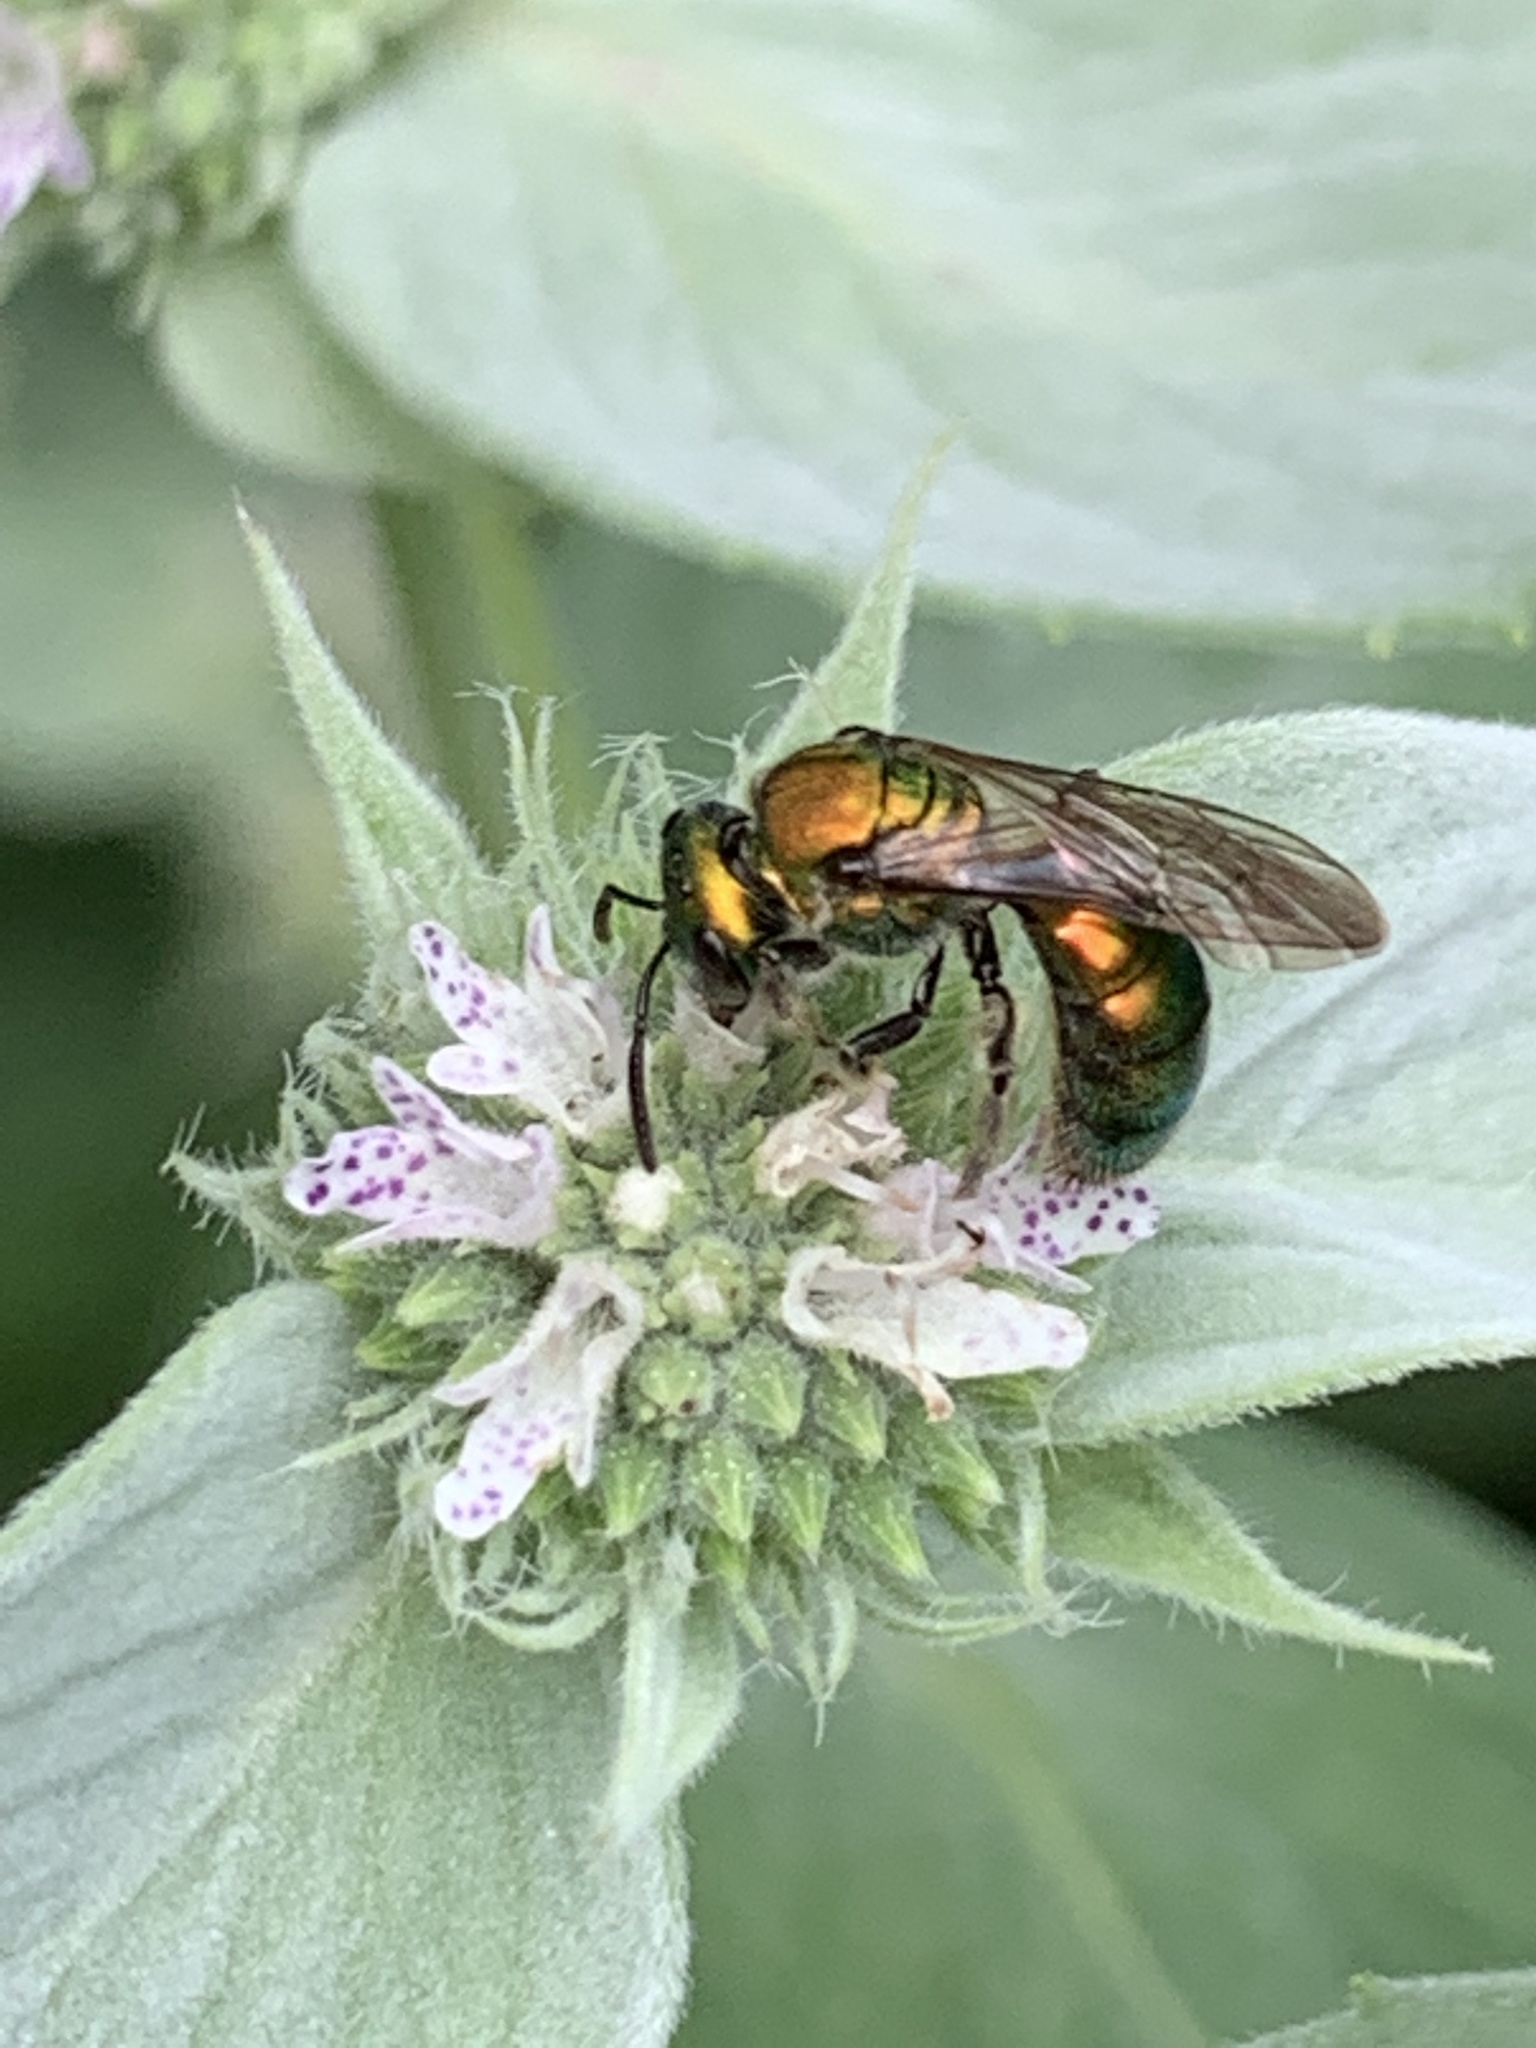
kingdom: Animalia
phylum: Arthropoda
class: Insecta
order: Hymenoptera
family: Halictidae
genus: Augochlora
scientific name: Augochlora pura
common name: Pure green sweat bee
